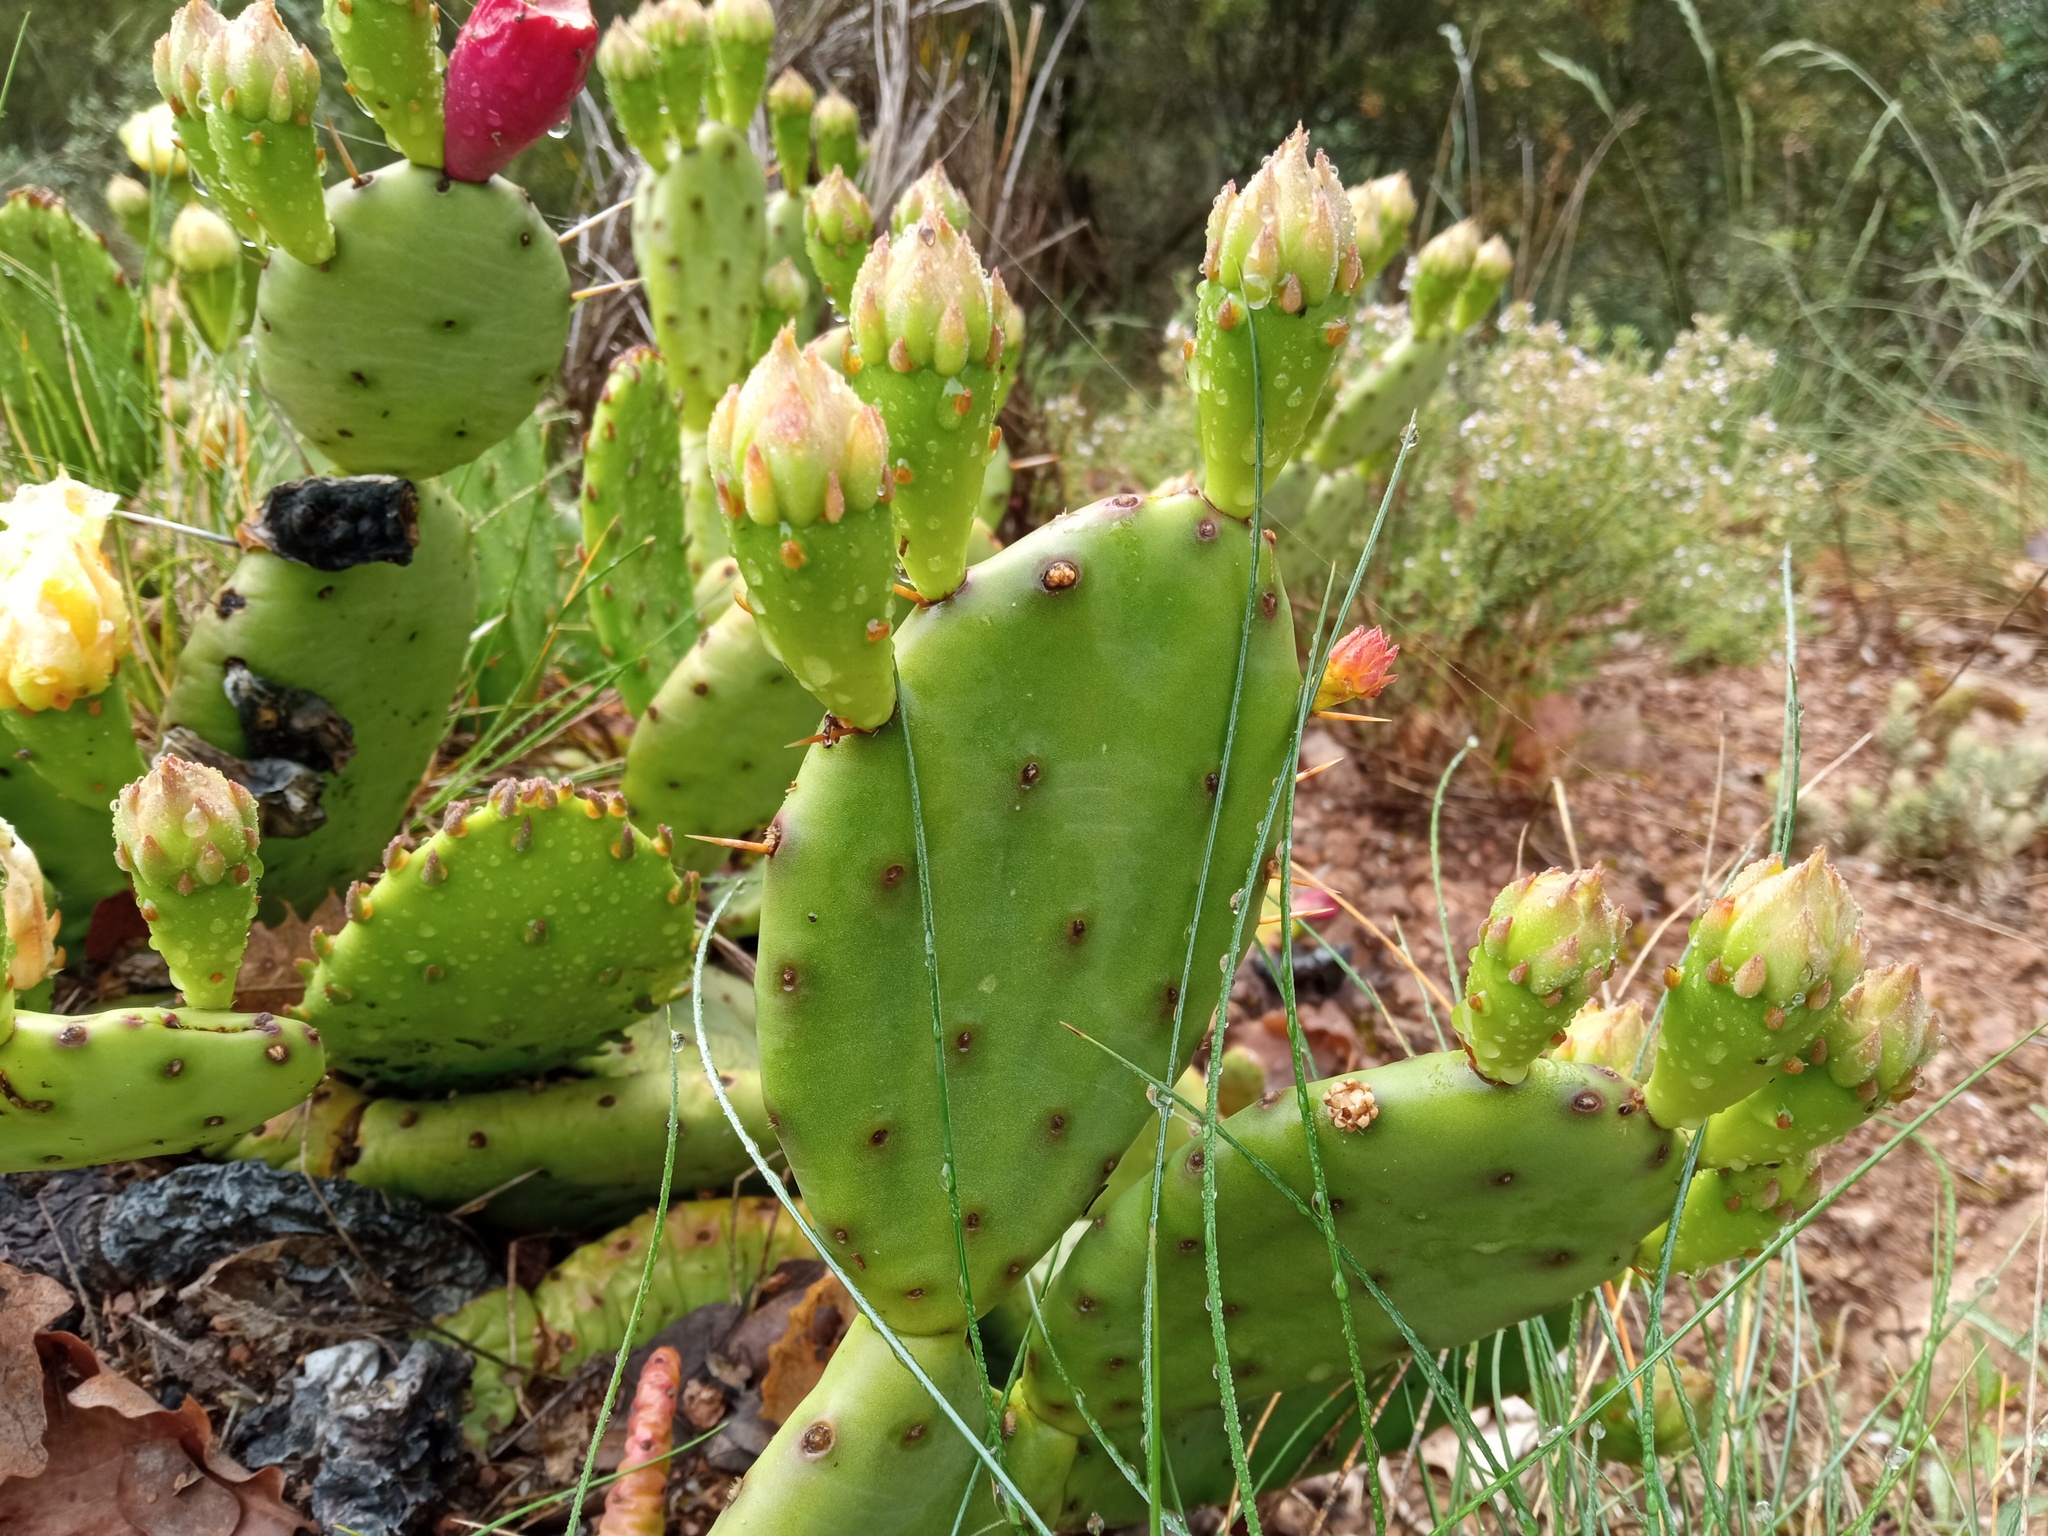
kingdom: Plantae
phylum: Tracheophyta
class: Magnoliopsida
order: Caryophyllales
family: Cactaceae
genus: Opuntia
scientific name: Opuntia humifusa
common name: Eastern prickly-pear
